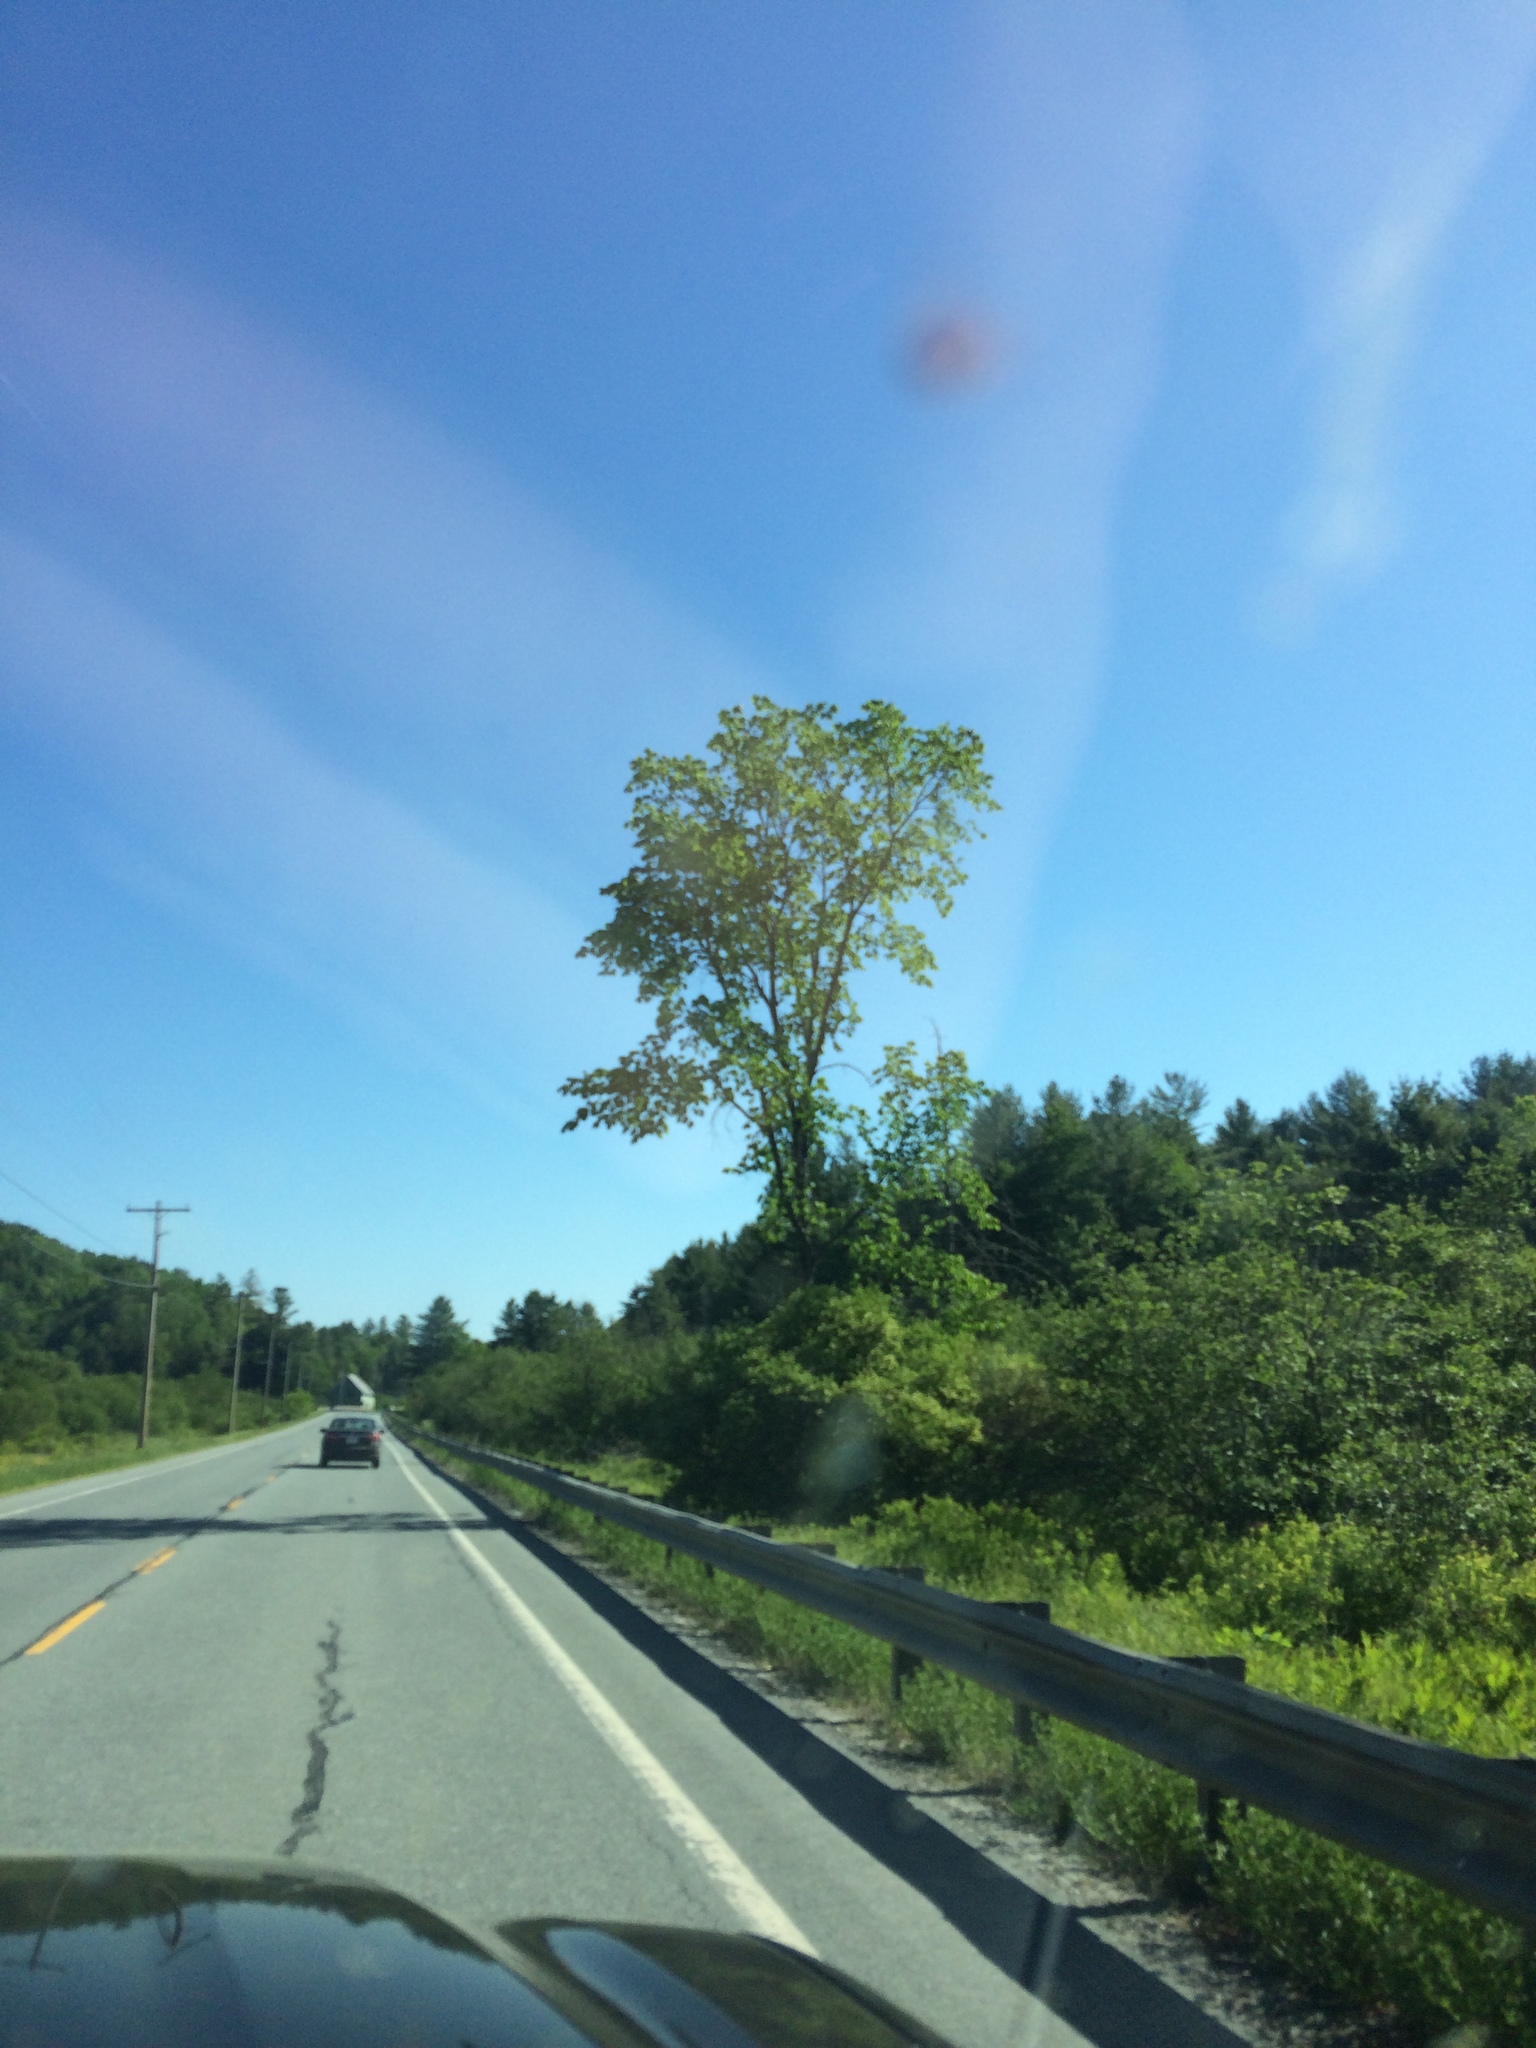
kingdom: Plantae
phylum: Tracheophyta
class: Magnoliopsida
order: Rosales
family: Ulmaceae
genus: Ulmus
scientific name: Ulmus americana
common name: American elm
